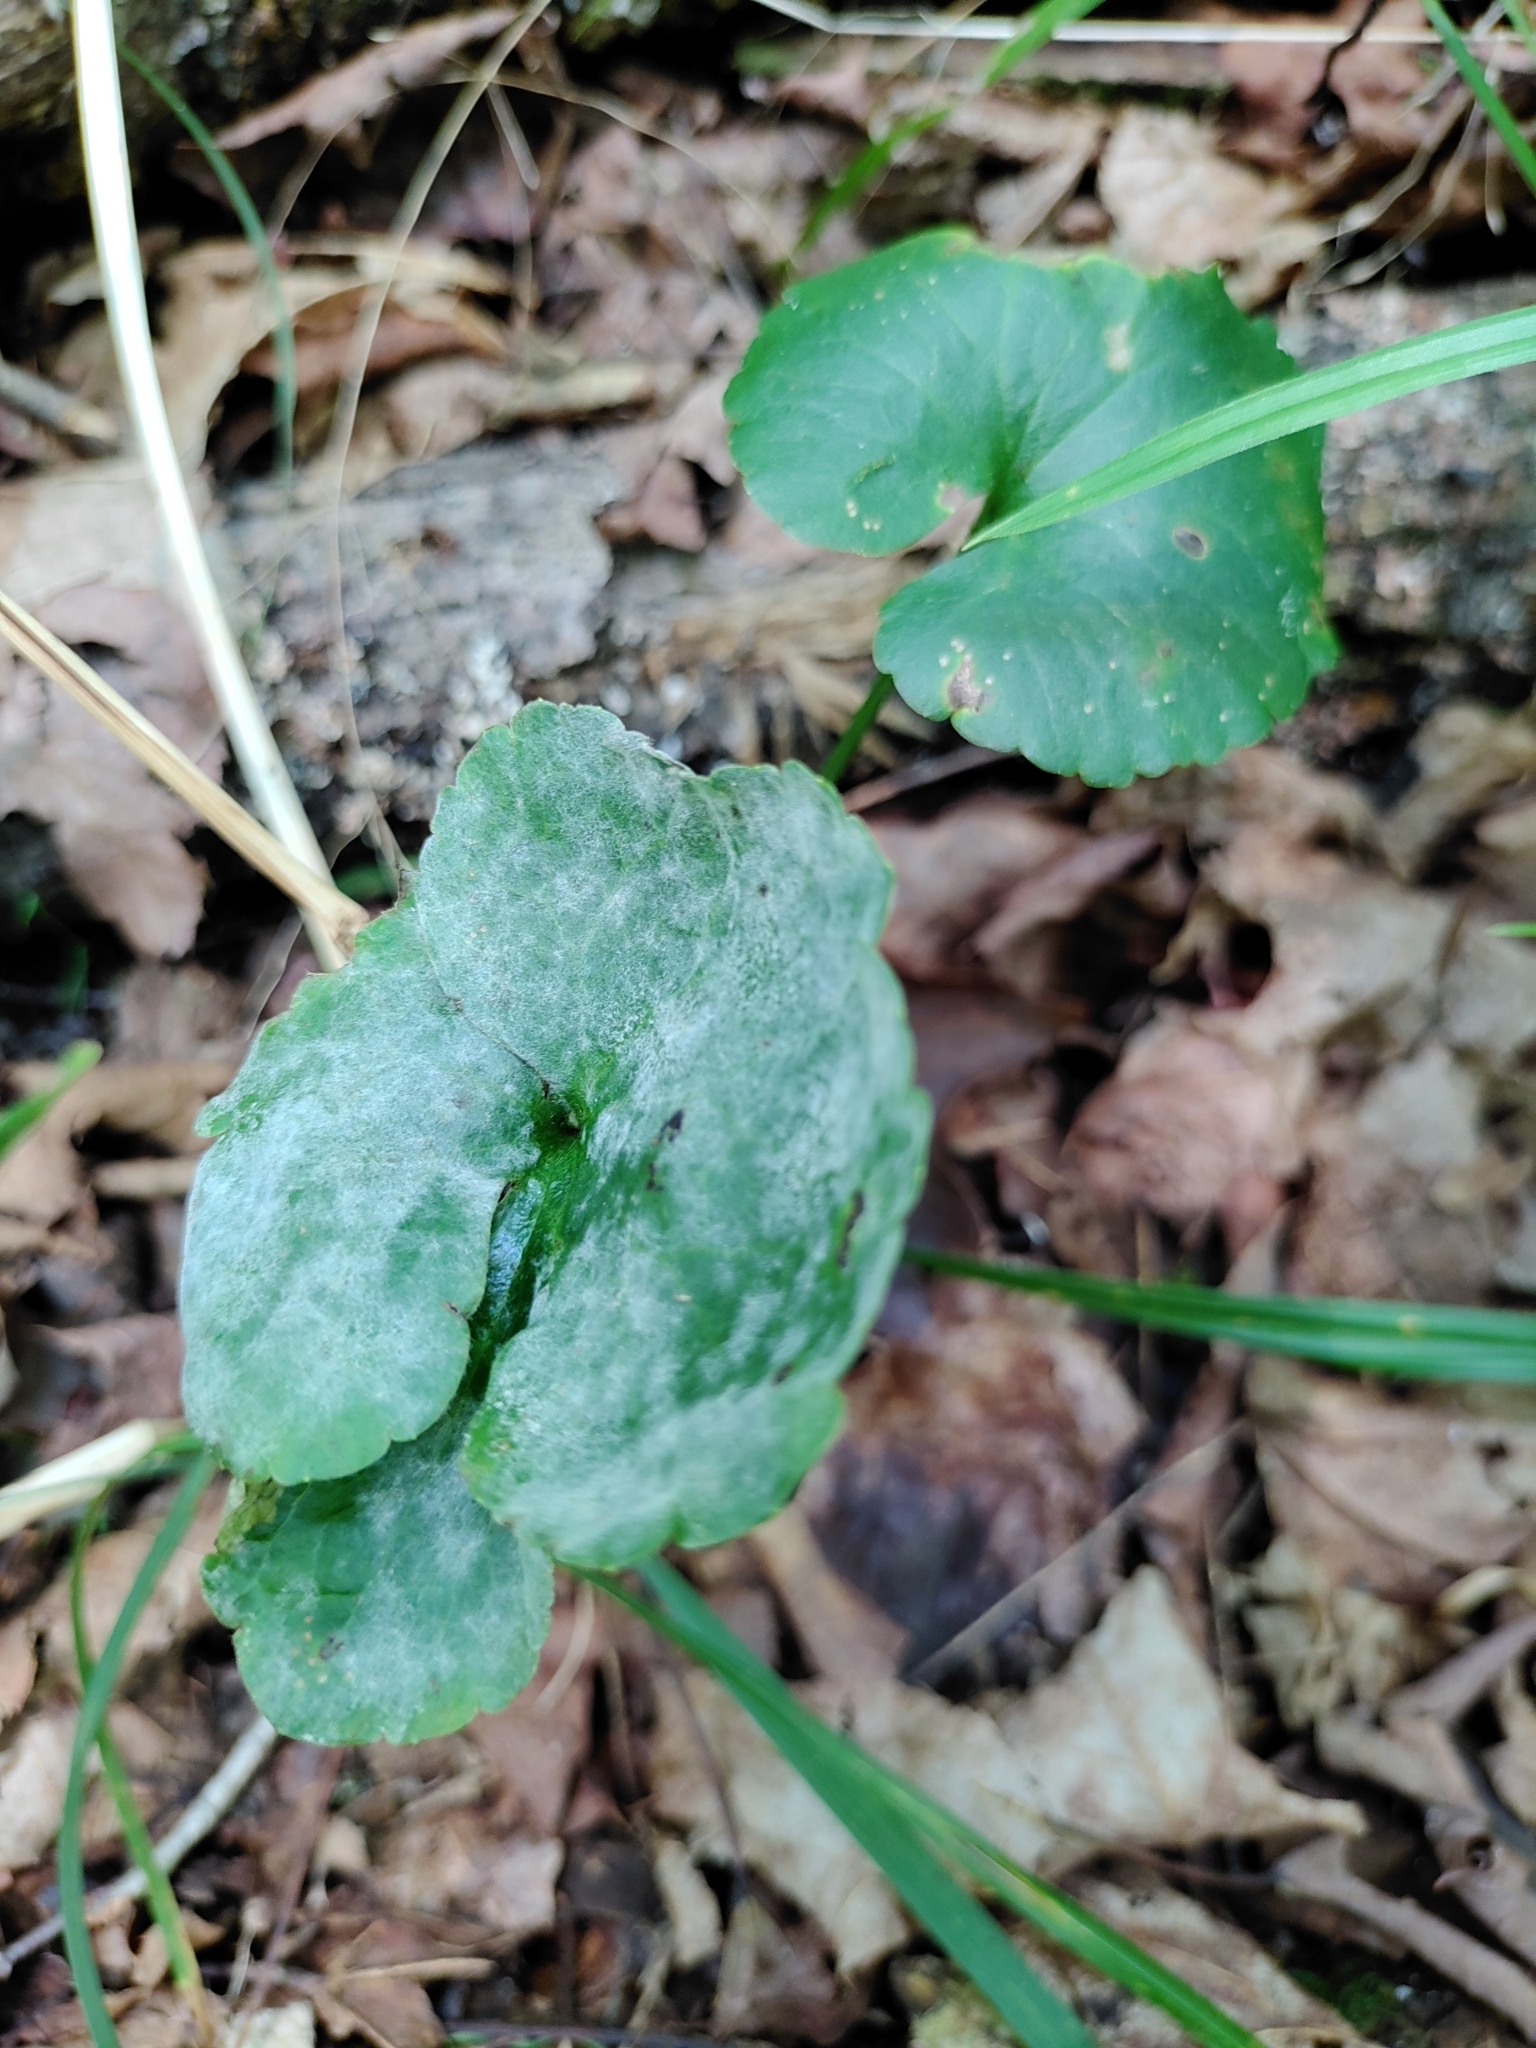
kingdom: Fungi
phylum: Ascomycota
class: Leotiomycetes
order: Helotiales
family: Erysiphaceae
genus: Erysiphe
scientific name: Erysiphe aquilegiae
